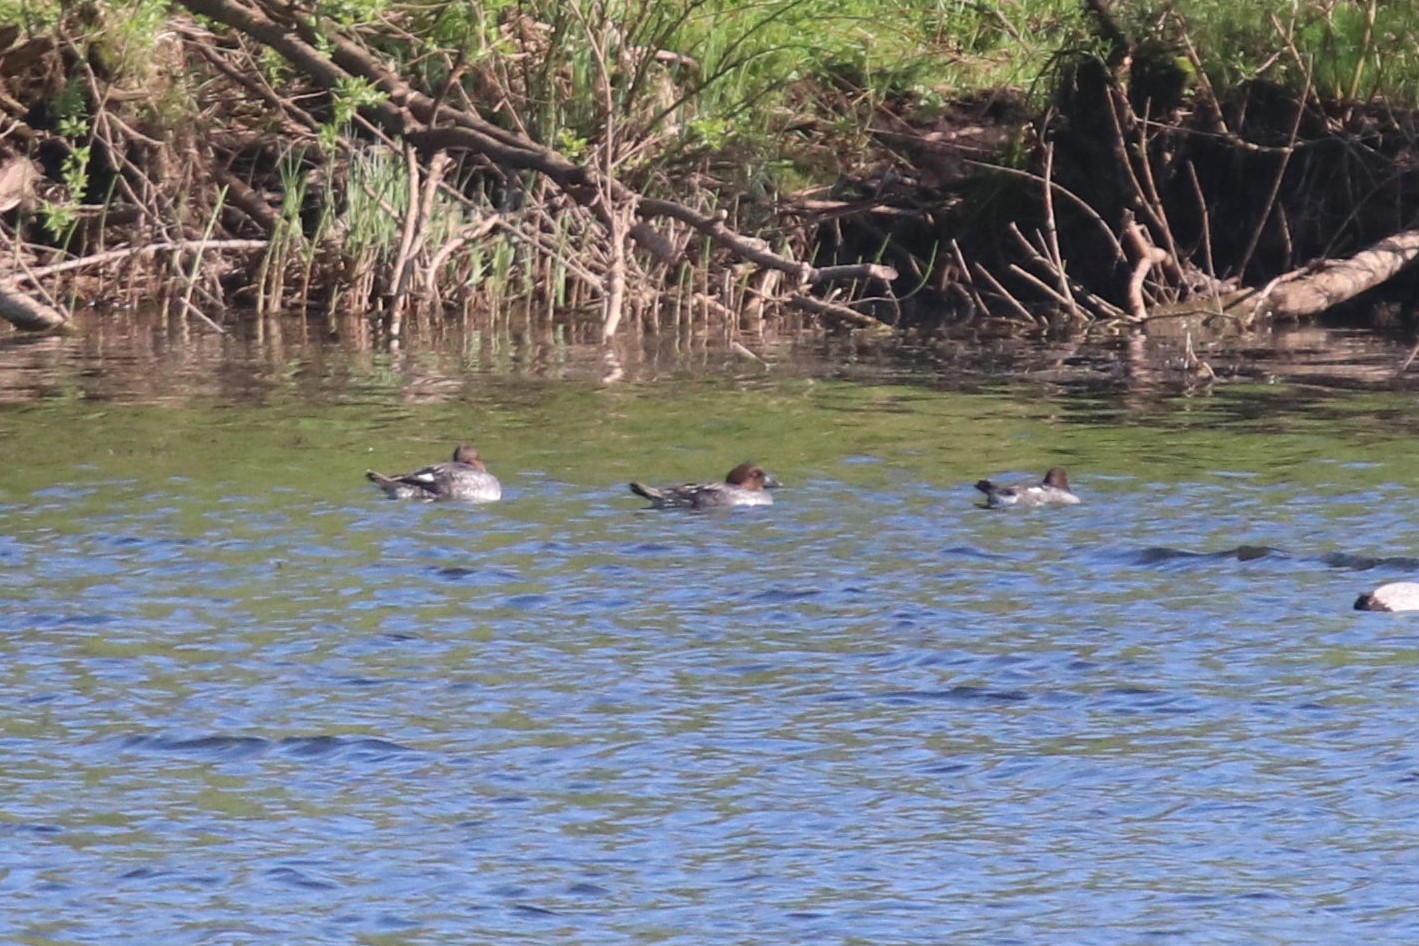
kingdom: Animalia
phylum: Chordata
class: Aves
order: Anseriformes
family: Anatidae
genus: Aythya
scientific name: Aythya ferina
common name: Common pochard
